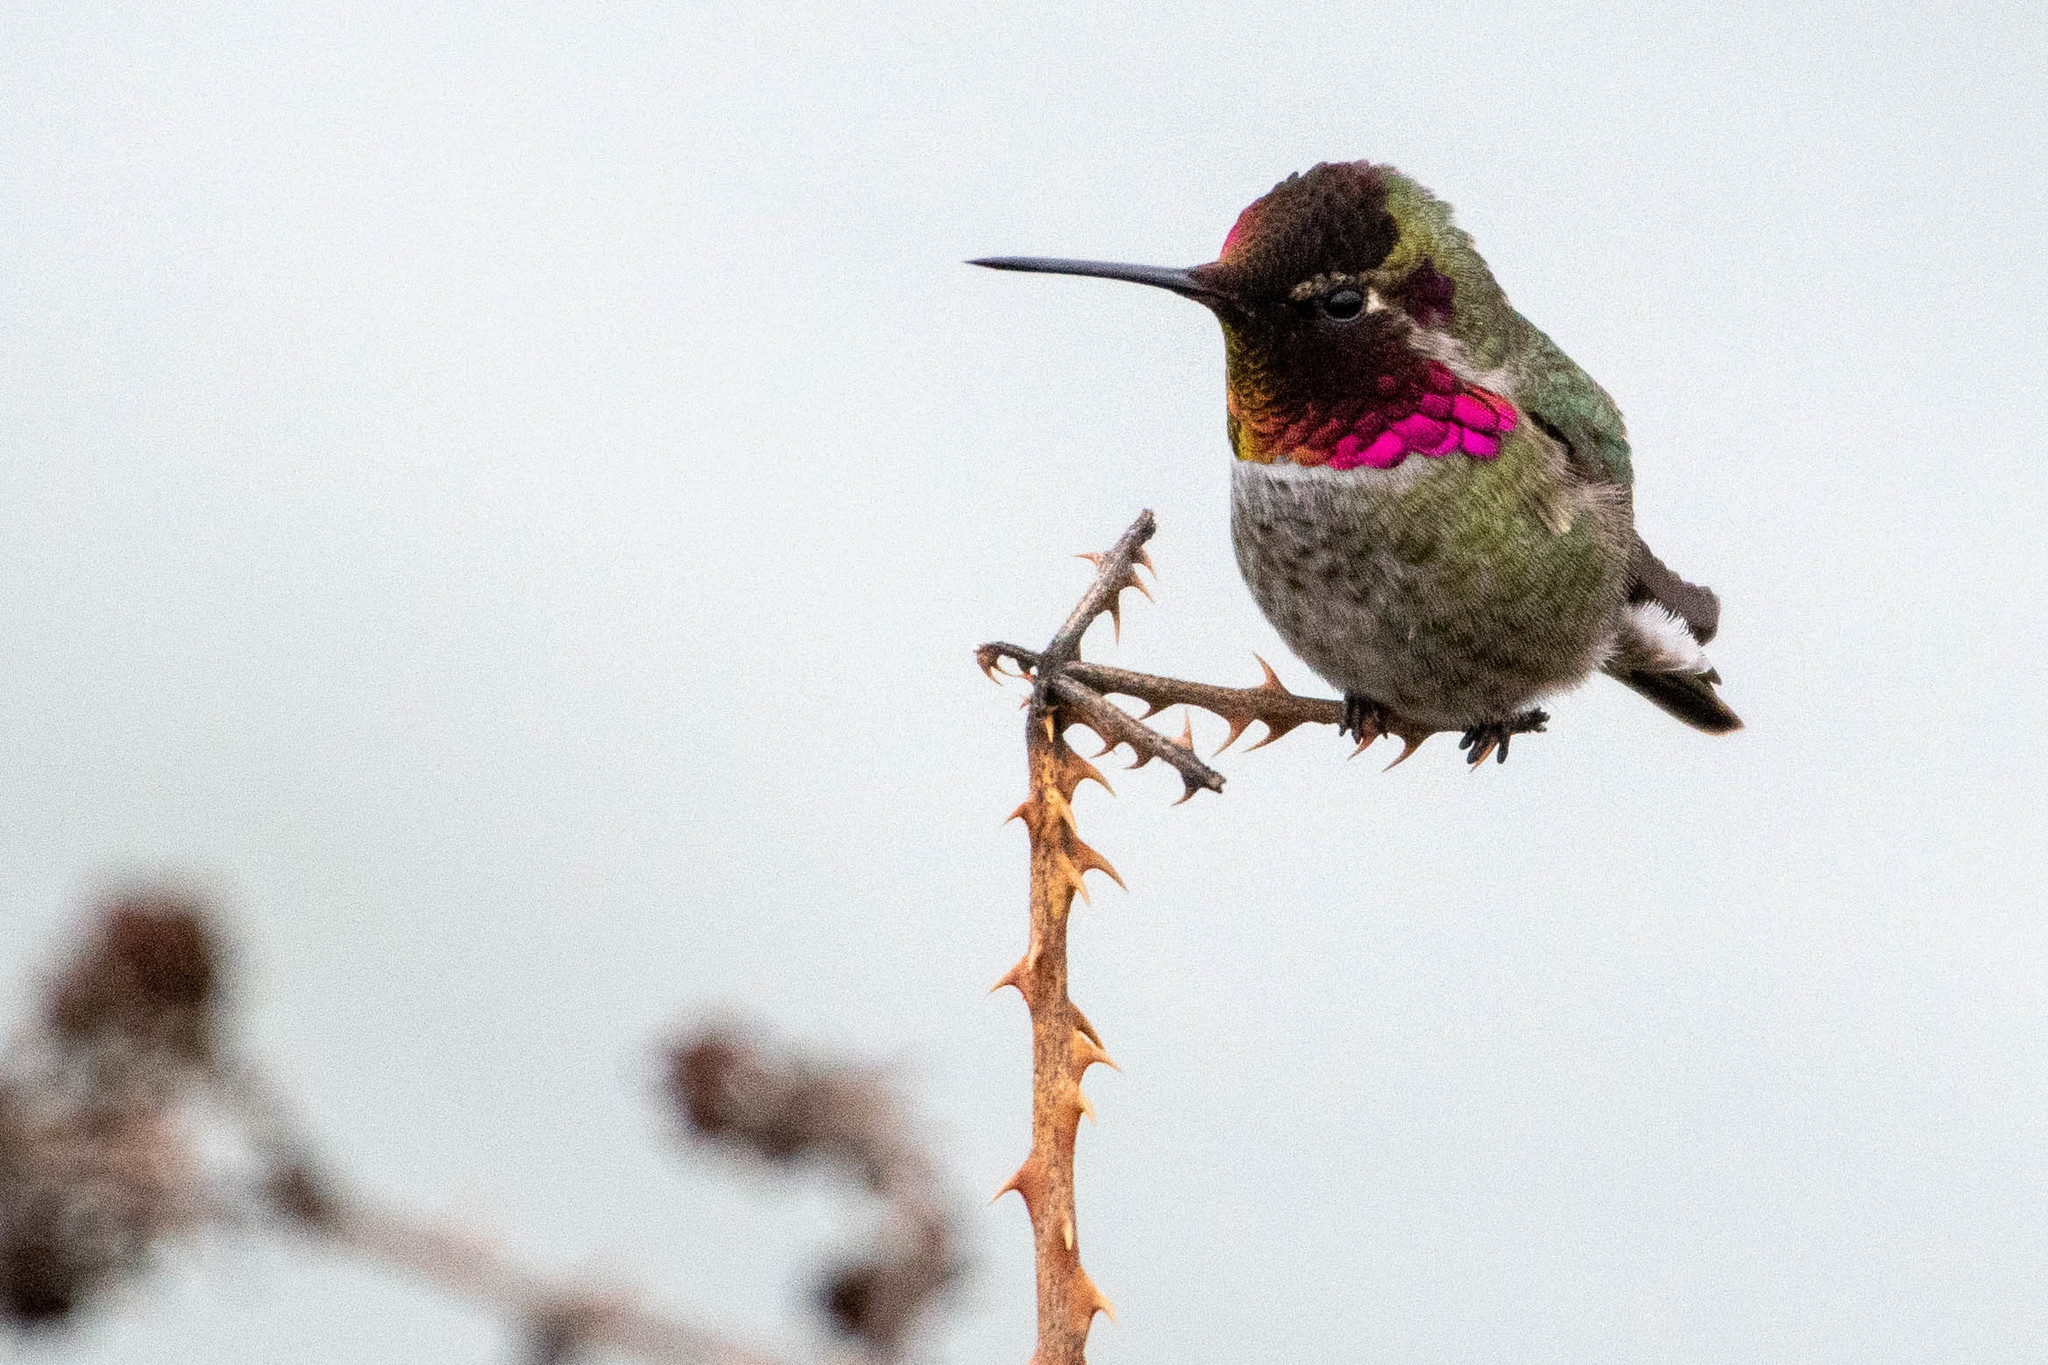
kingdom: Animalia
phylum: Chordata
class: Aves
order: Apodiformes
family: Trochilidae
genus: Calypte
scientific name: Calypte anna
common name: Anna's hummingbird
